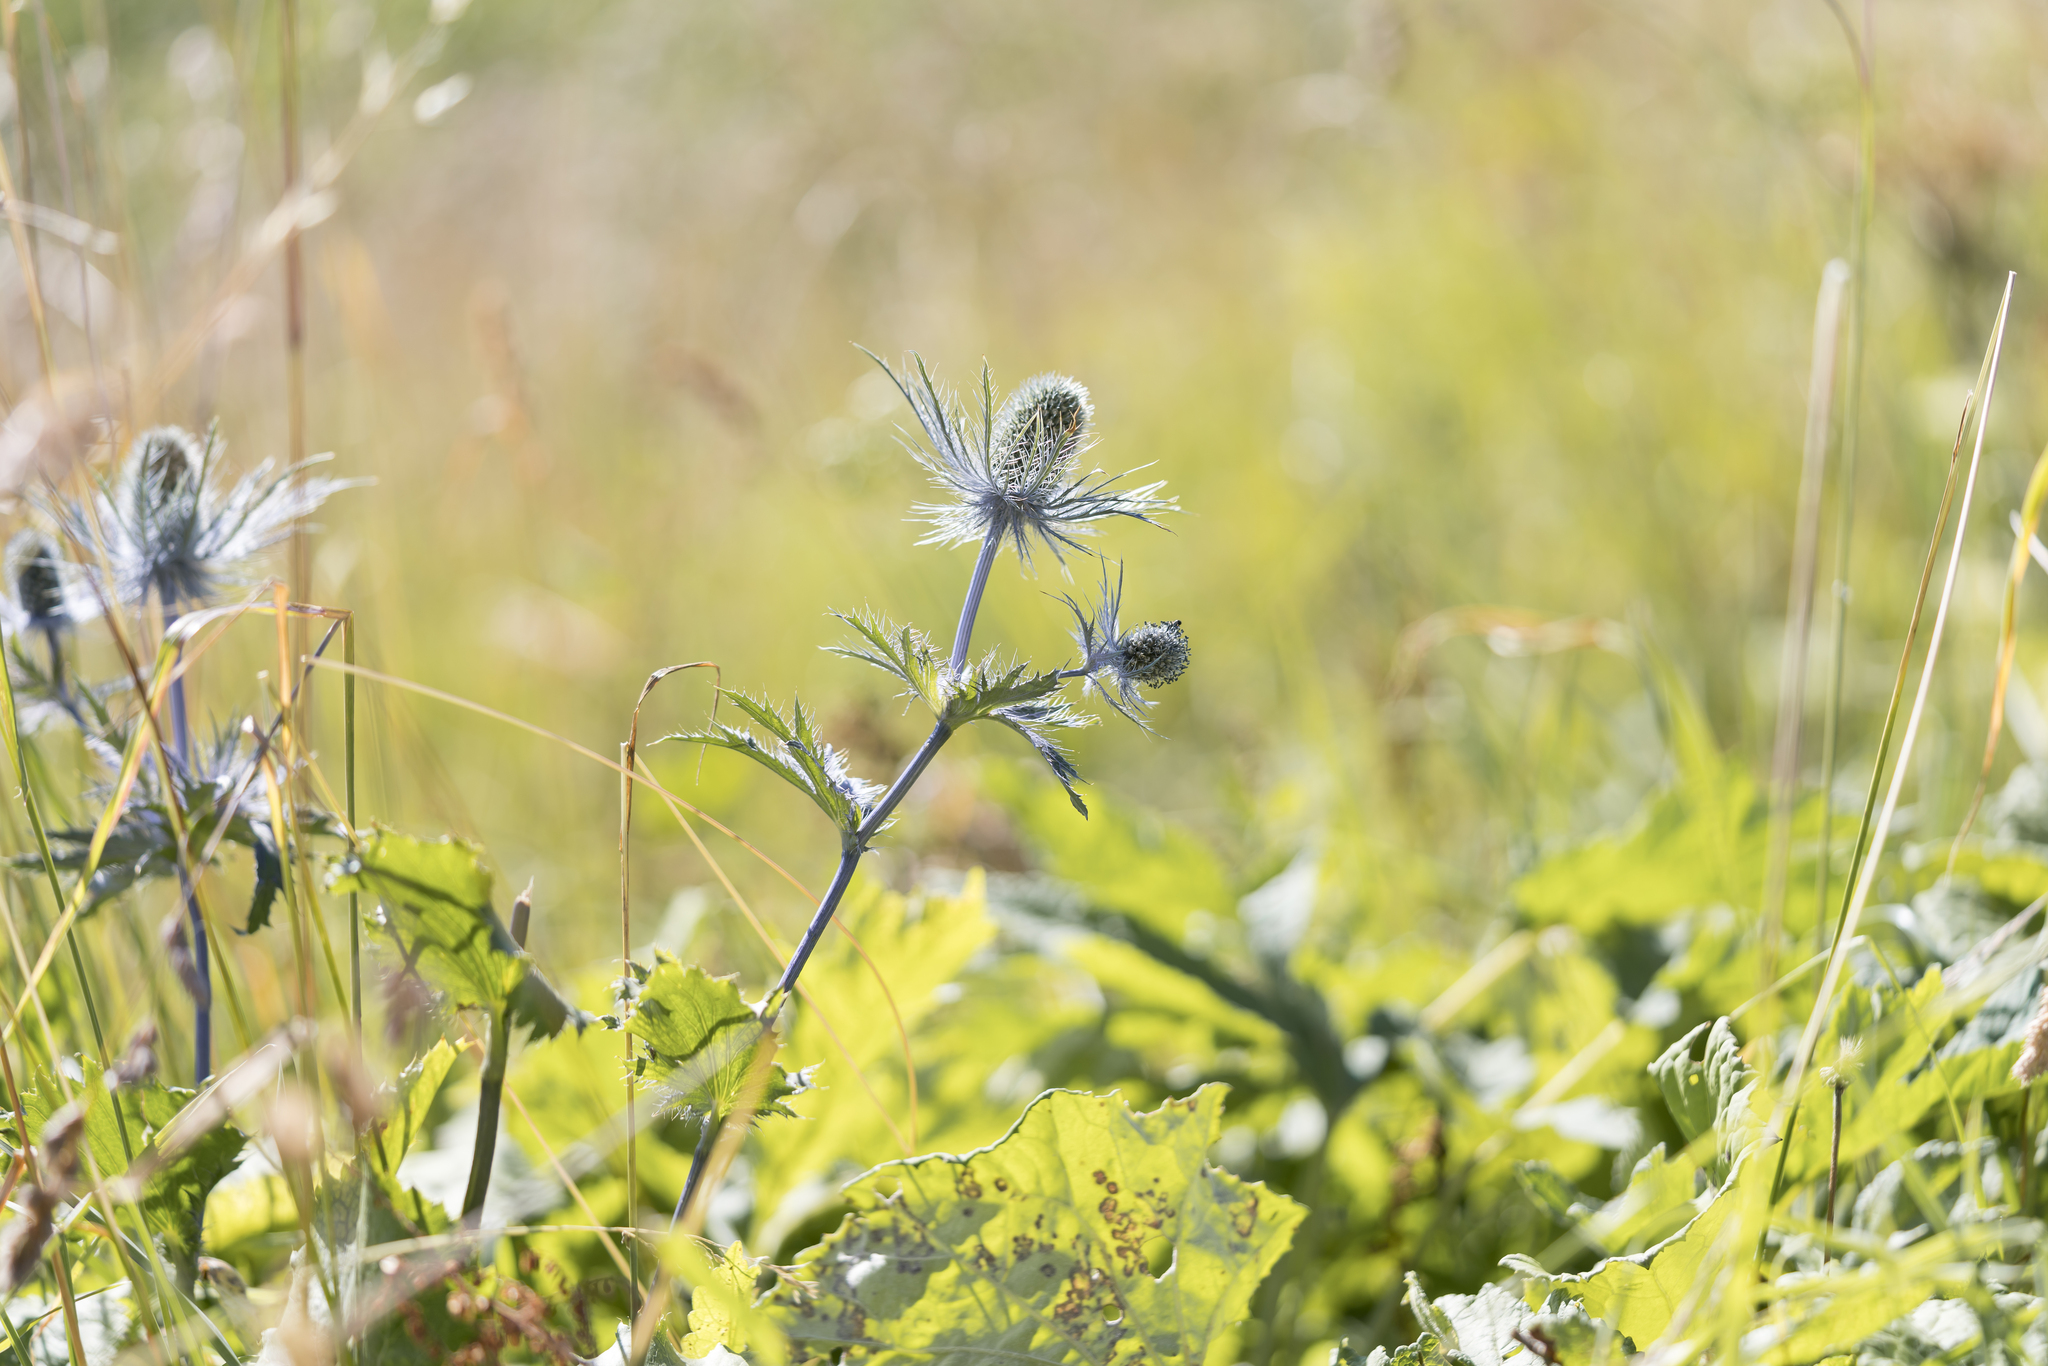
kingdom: Plantae
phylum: Tracheophyta
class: Magnoliopsida
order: Apiales
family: Apiaceae
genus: Eryngium
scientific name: Eryngium alpinum
